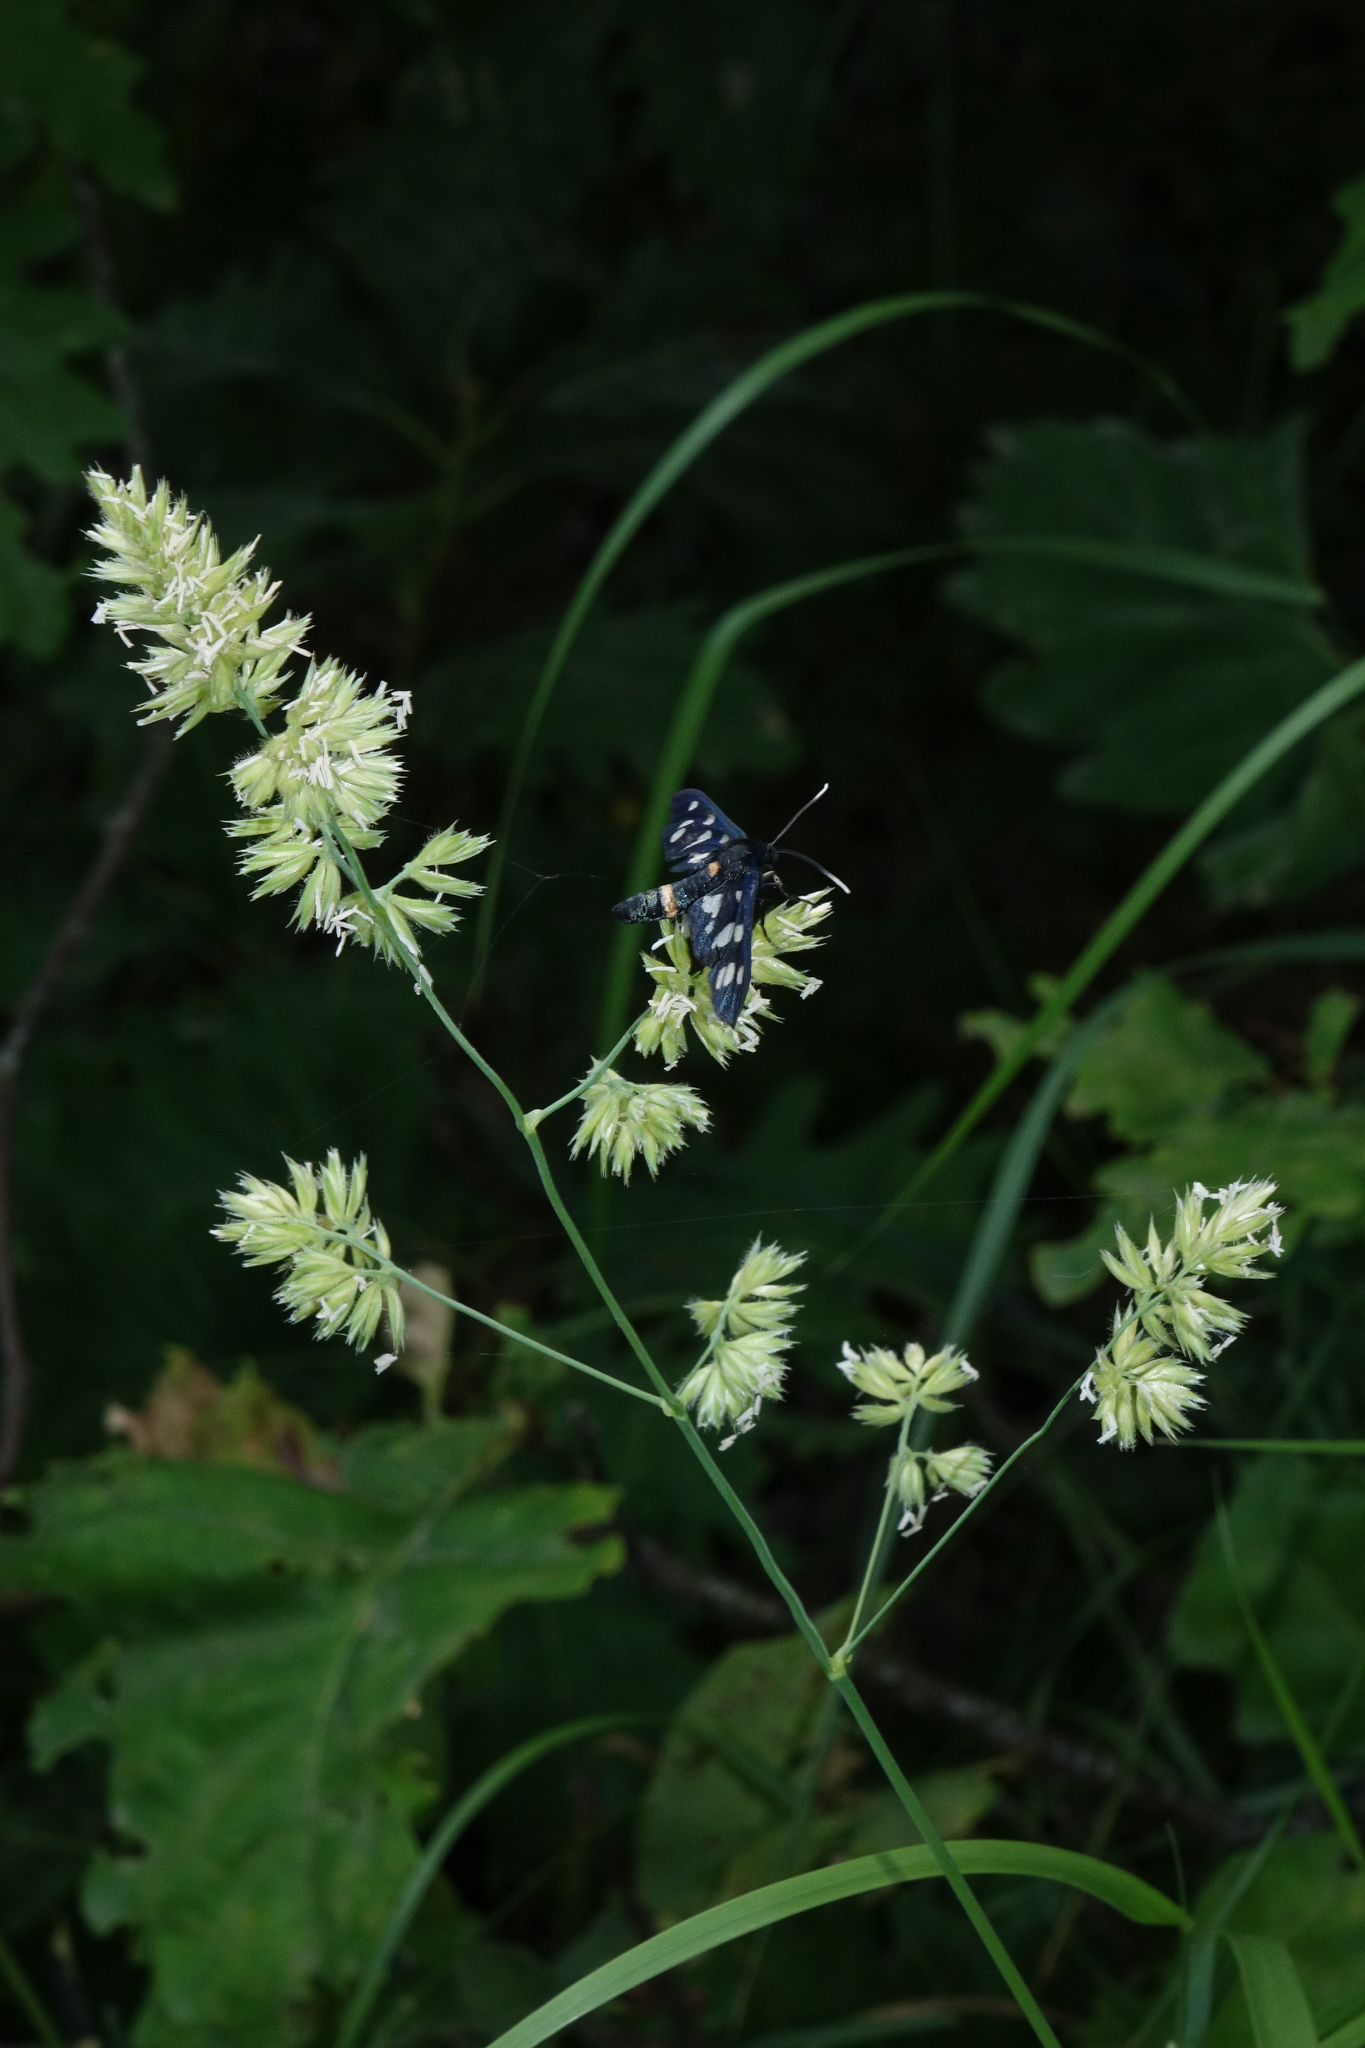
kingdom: Plantae
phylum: Tracheophyta
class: Liliopsida
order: Poales
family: Poaceae
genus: Dactylis
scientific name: Dactylis glomerata
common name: Orchardgrass
